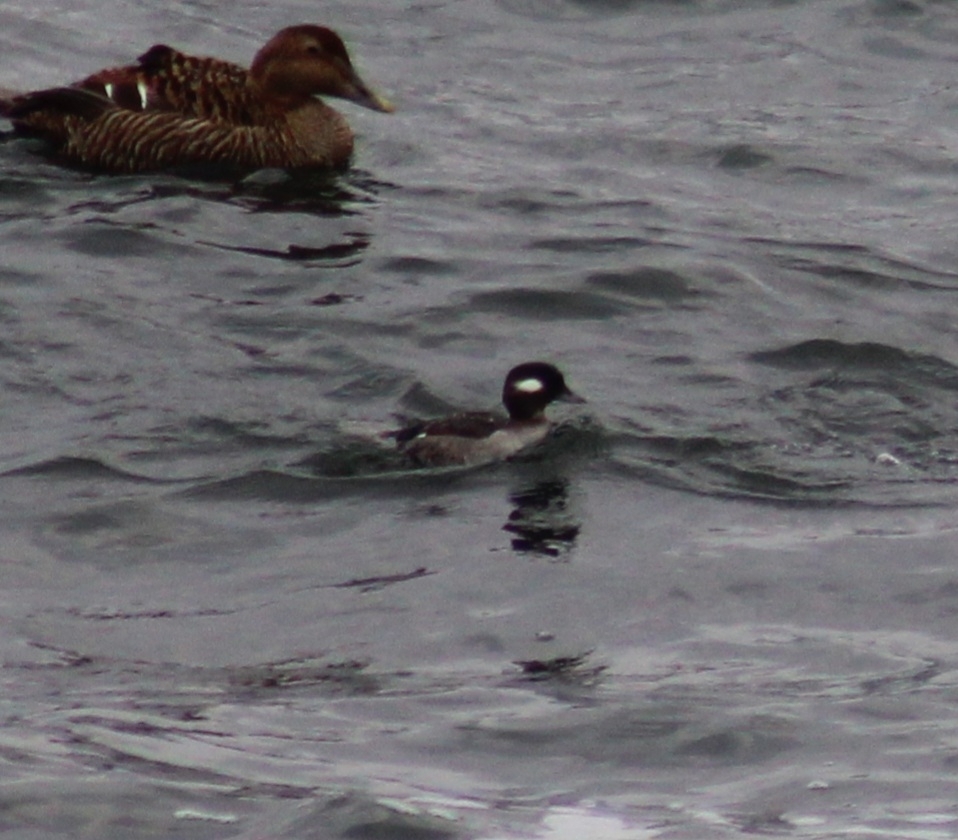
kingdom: Animalia
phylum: Chordata
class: Aves
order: Anseriformes
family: Anatidae
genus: Bucephala
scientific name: Bucephala albeola
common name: Bufflehead
